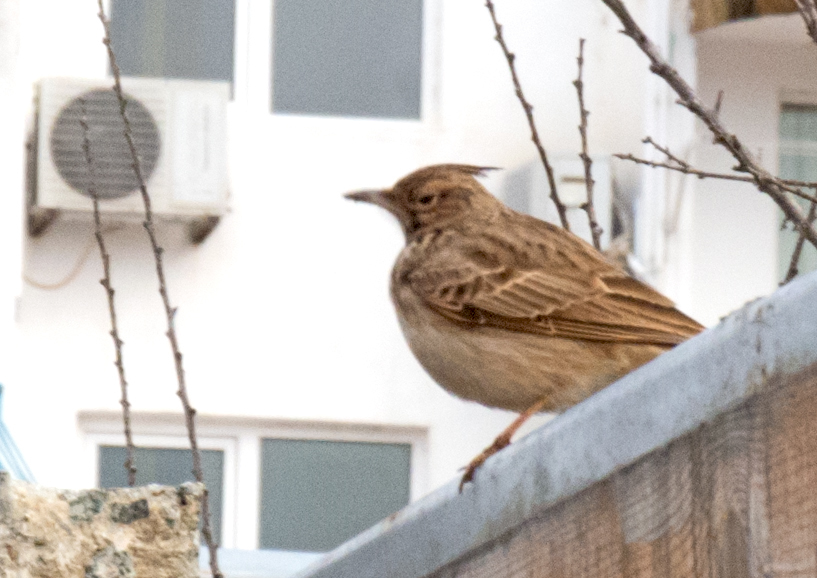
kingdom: Animalia
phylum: Chordata
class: Aves
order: Passeriformes
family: Alaudidae
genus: Galerida
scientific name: Galerida cristata
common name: Crested lark
